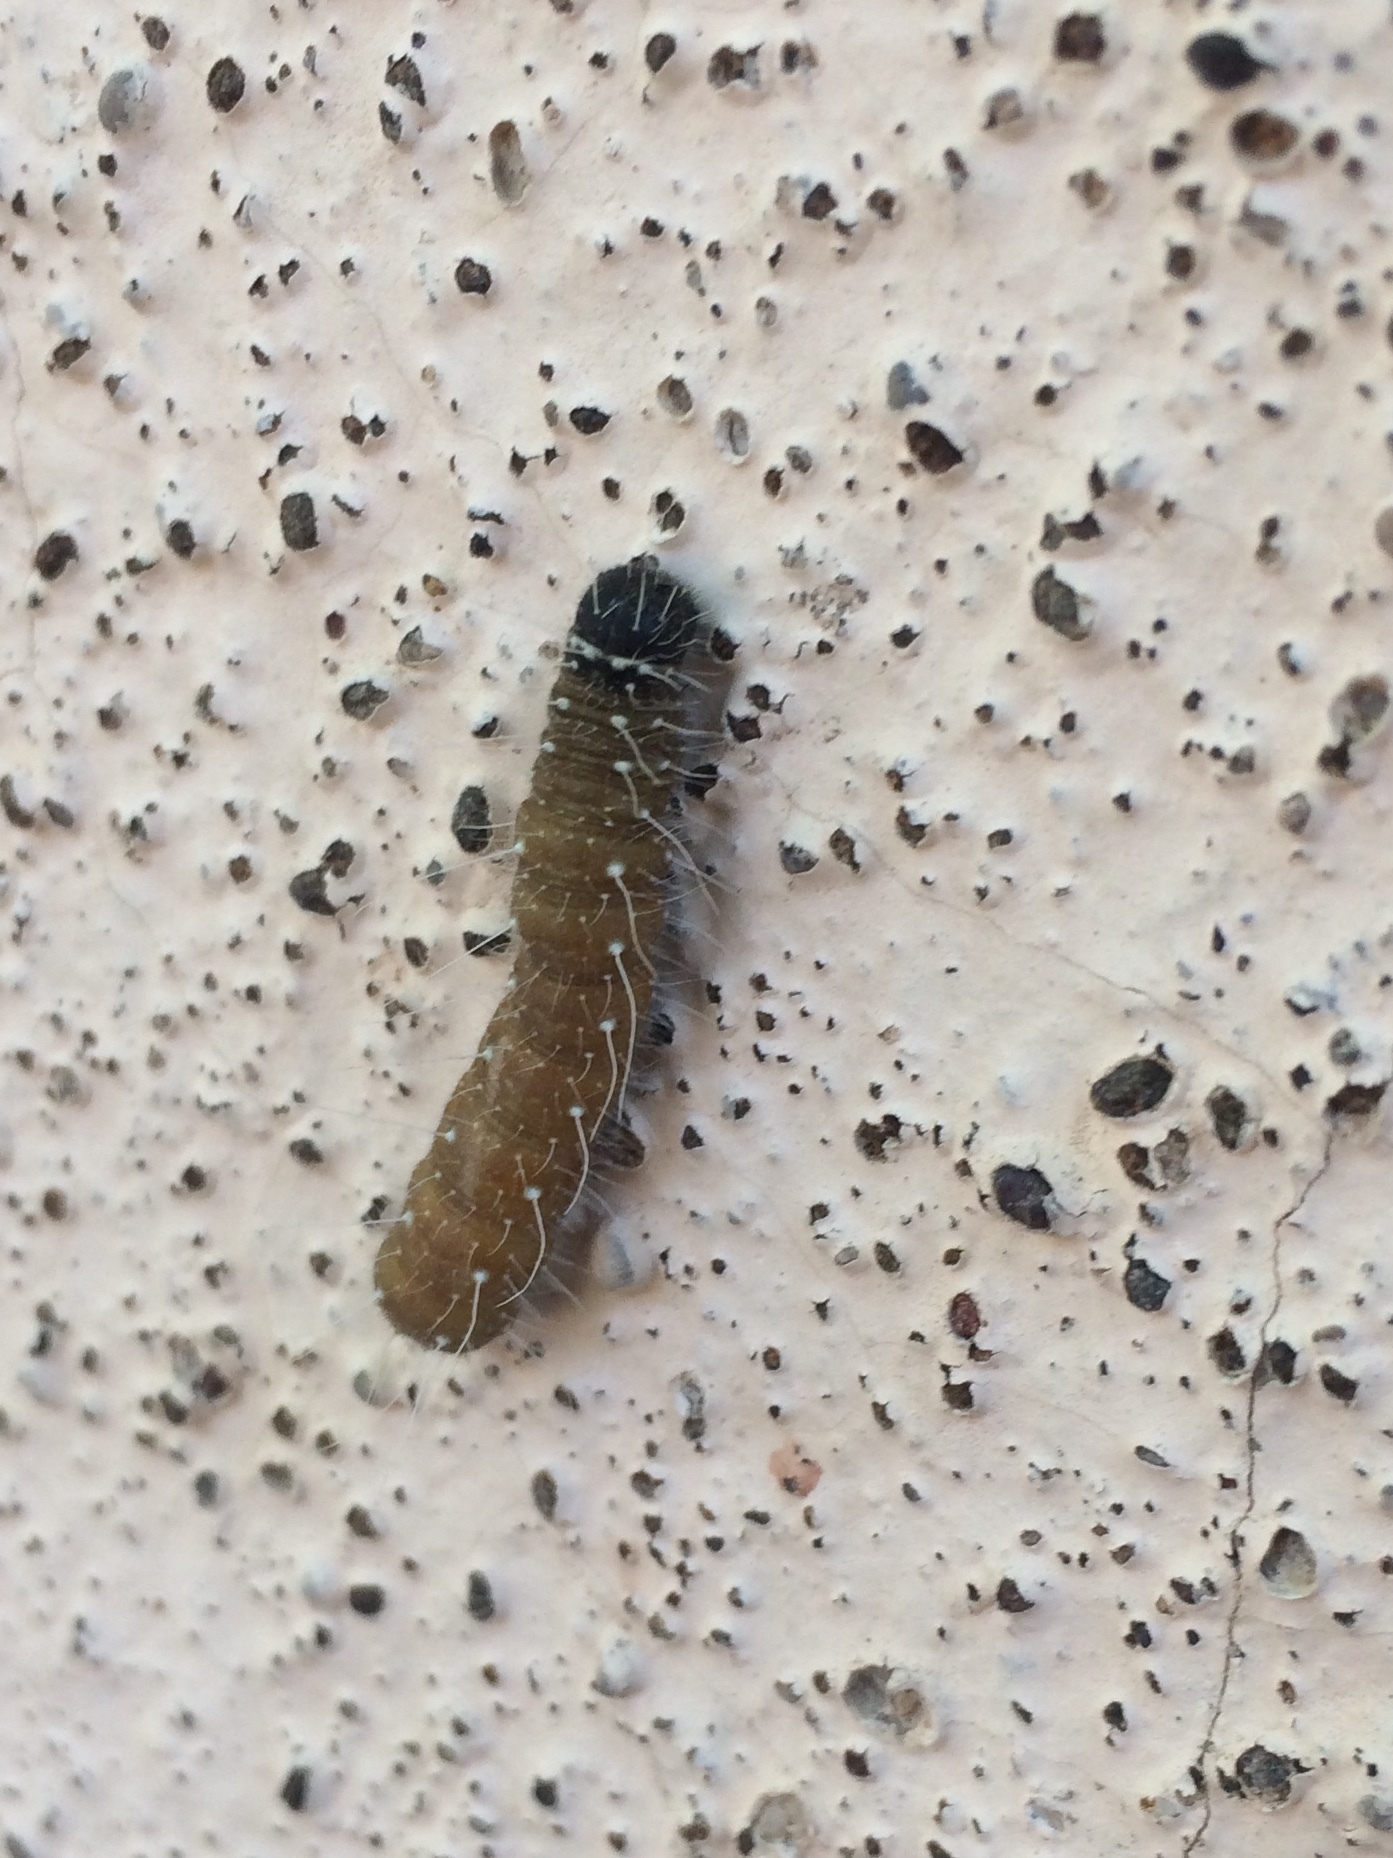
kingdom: Animalia
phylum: Arthropoda
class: Insecta
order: Lepidoptera
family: Pieridae
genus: Delias
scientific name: Delias eucharis
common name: Common jezebel
